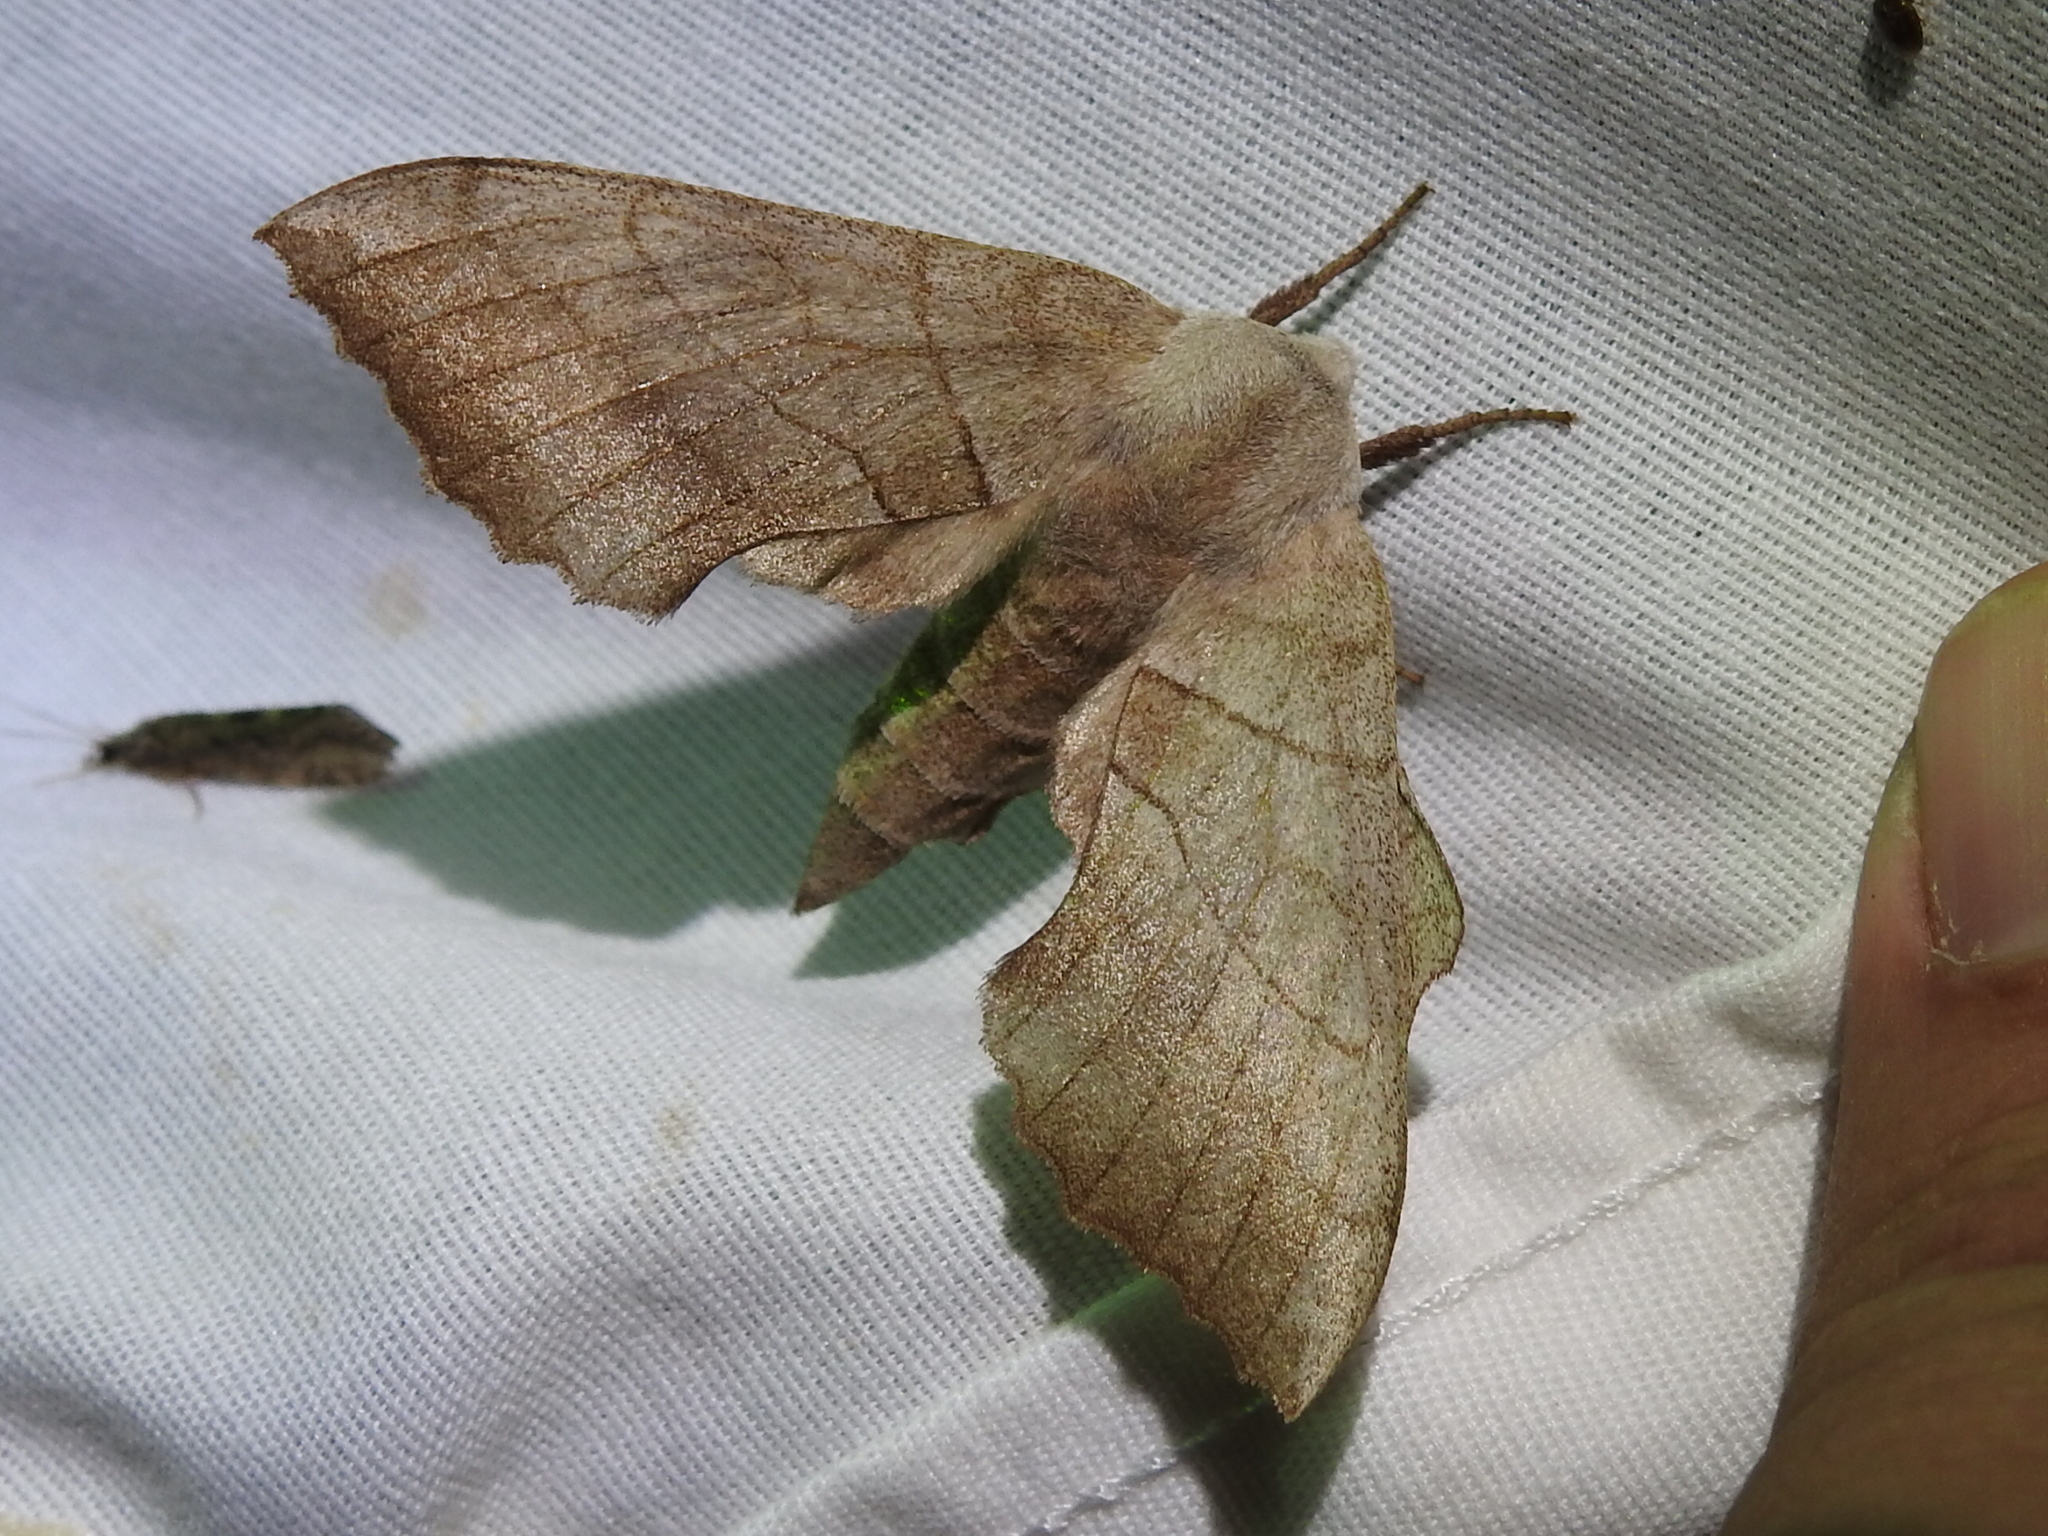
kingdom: Animalia
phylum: Arthropoda
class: Insecta
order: Lepidoptera
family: Sphingidae
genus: Amorpha
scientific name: Amorpha juglandis
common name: Walnut sphinx
